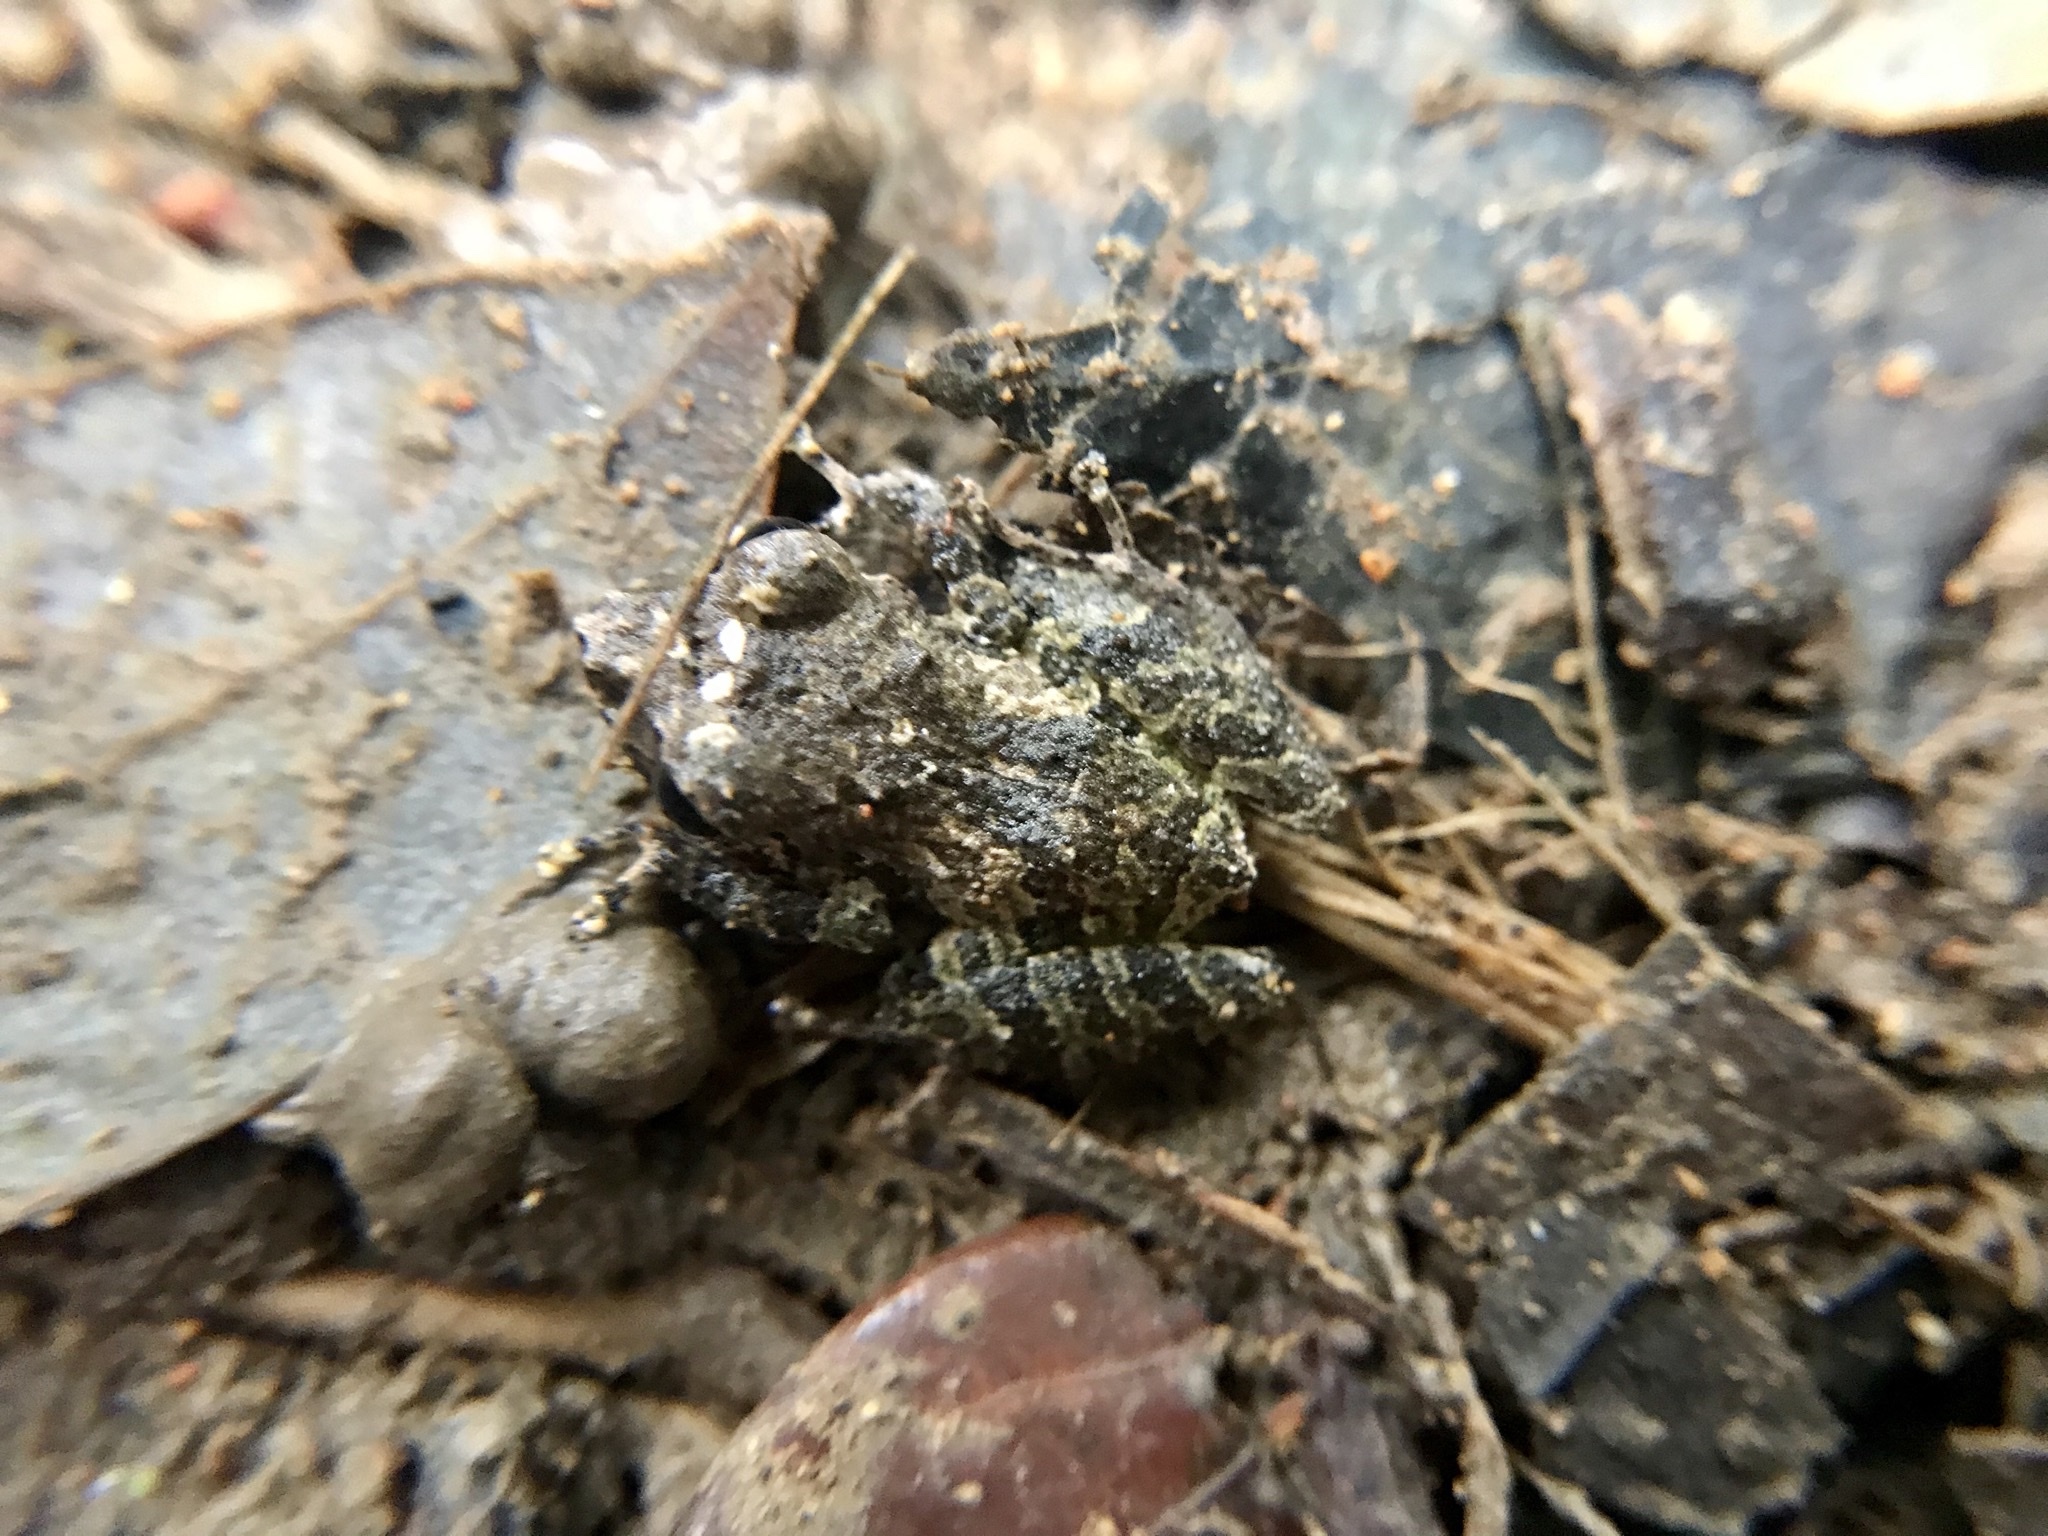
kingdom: Animalia
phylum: Chordata
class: Amphibia
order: Anura
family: Craugastoridae
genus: Pristimantis
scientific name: Pristimantis ridens
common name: Rio san juan robber frog
